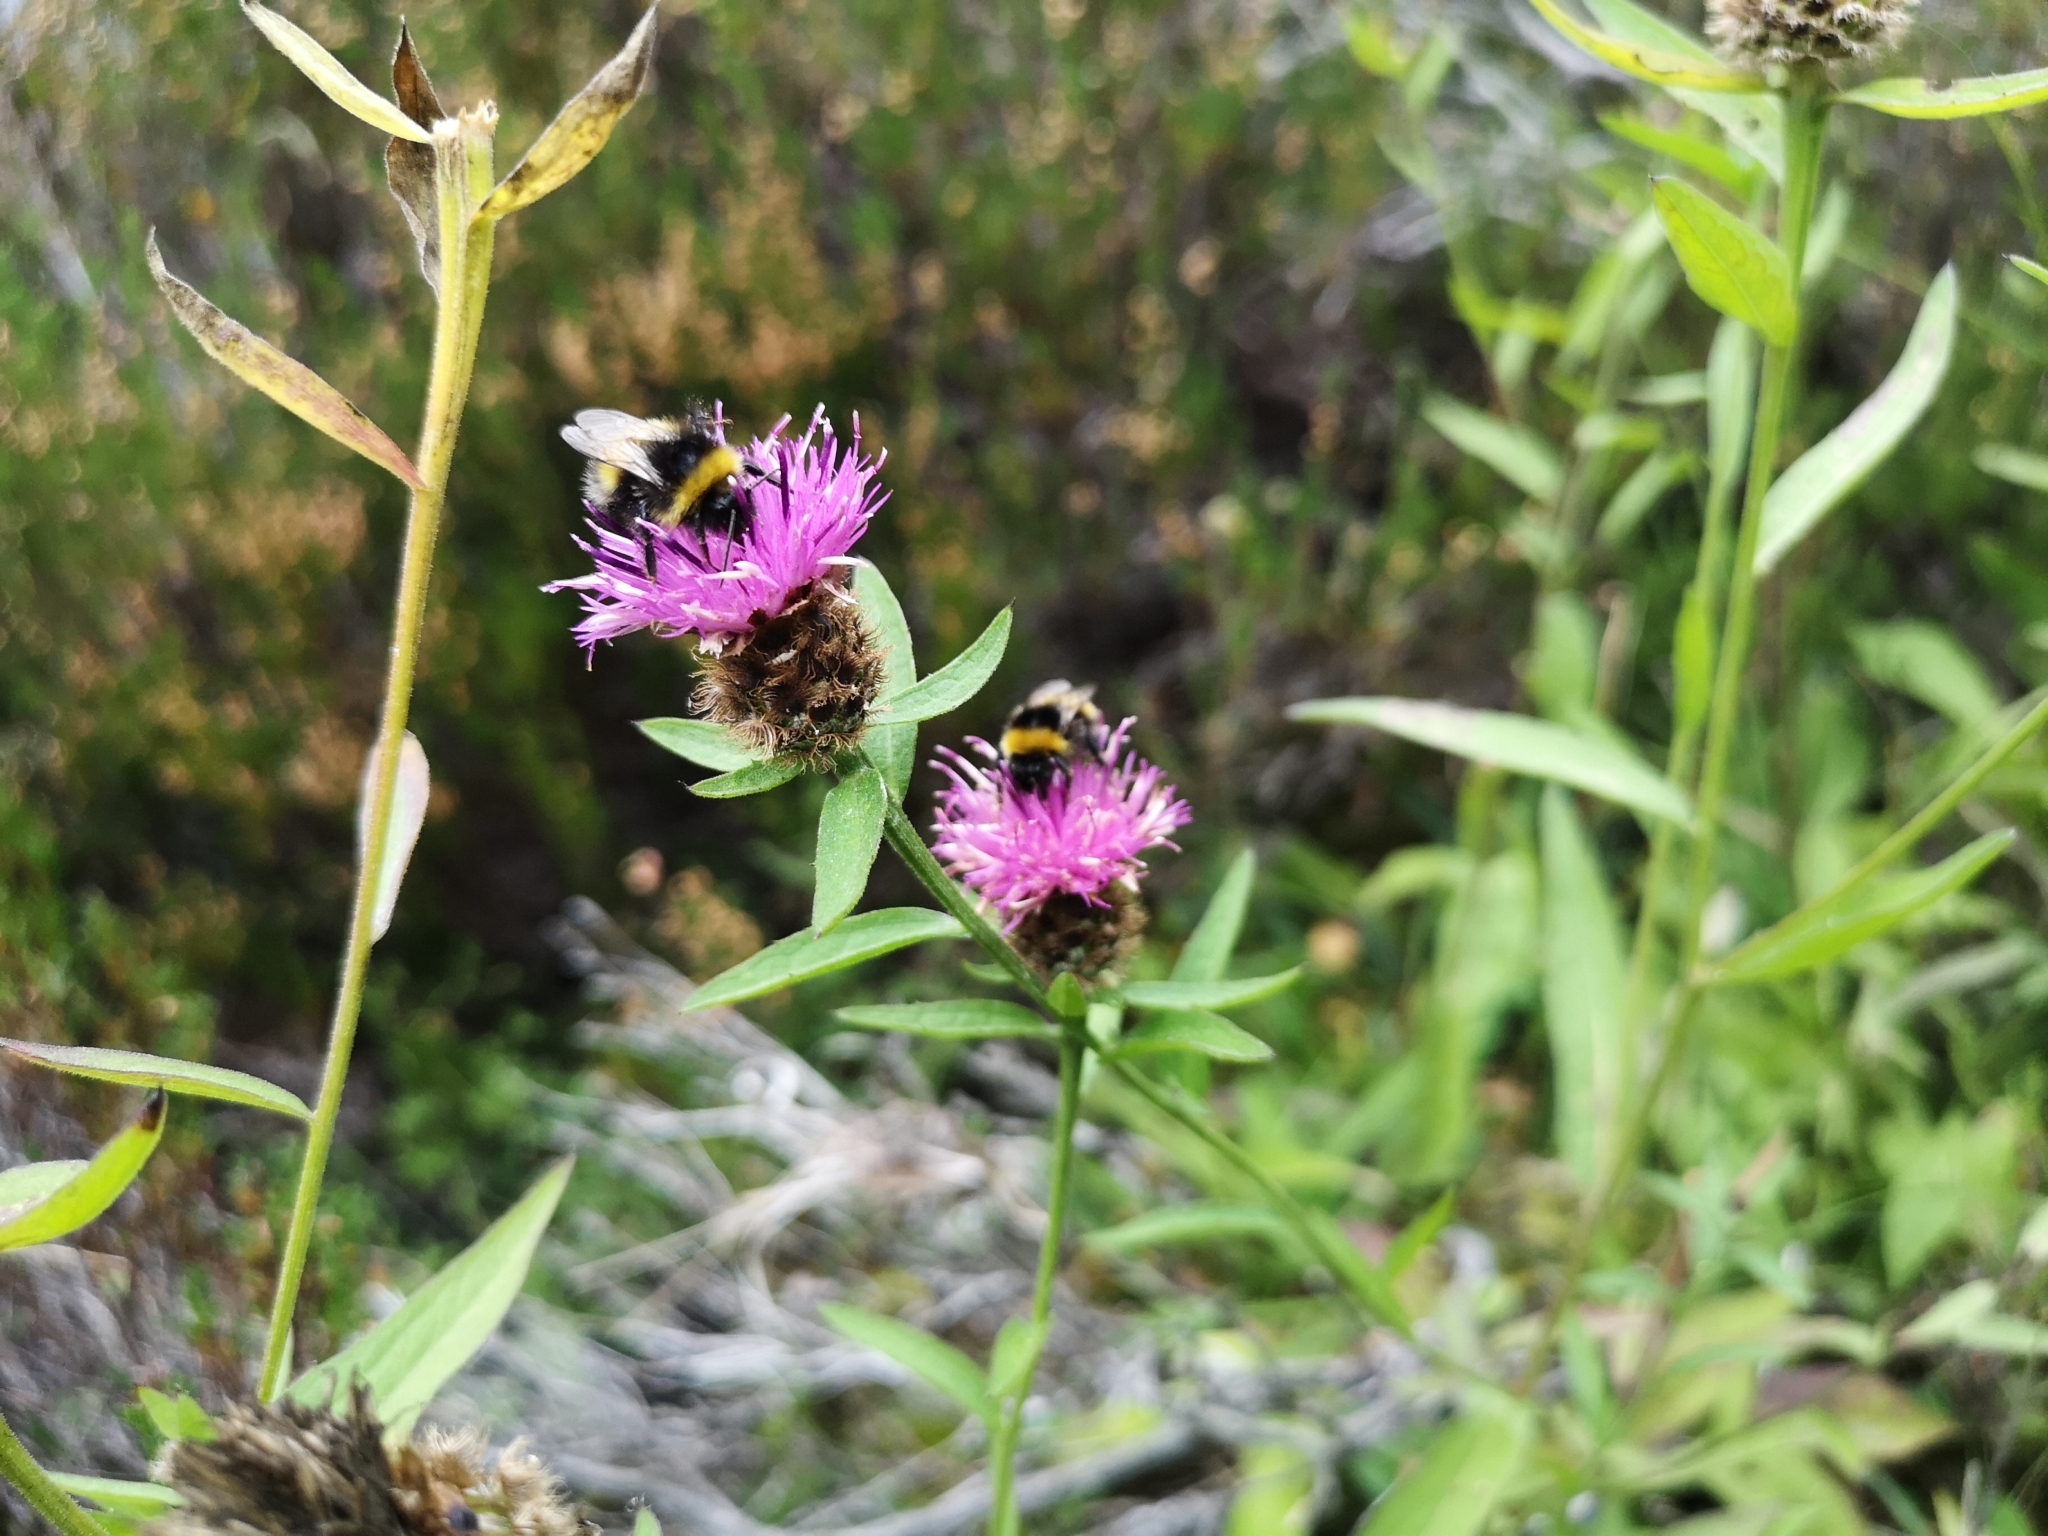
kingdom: Plantae
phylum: Tracheophyta
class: Magnoliopsida
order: Asterales
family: Asteraceae
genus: Centaurea
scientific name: Centaurea nigra
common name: Lesser knapweed
